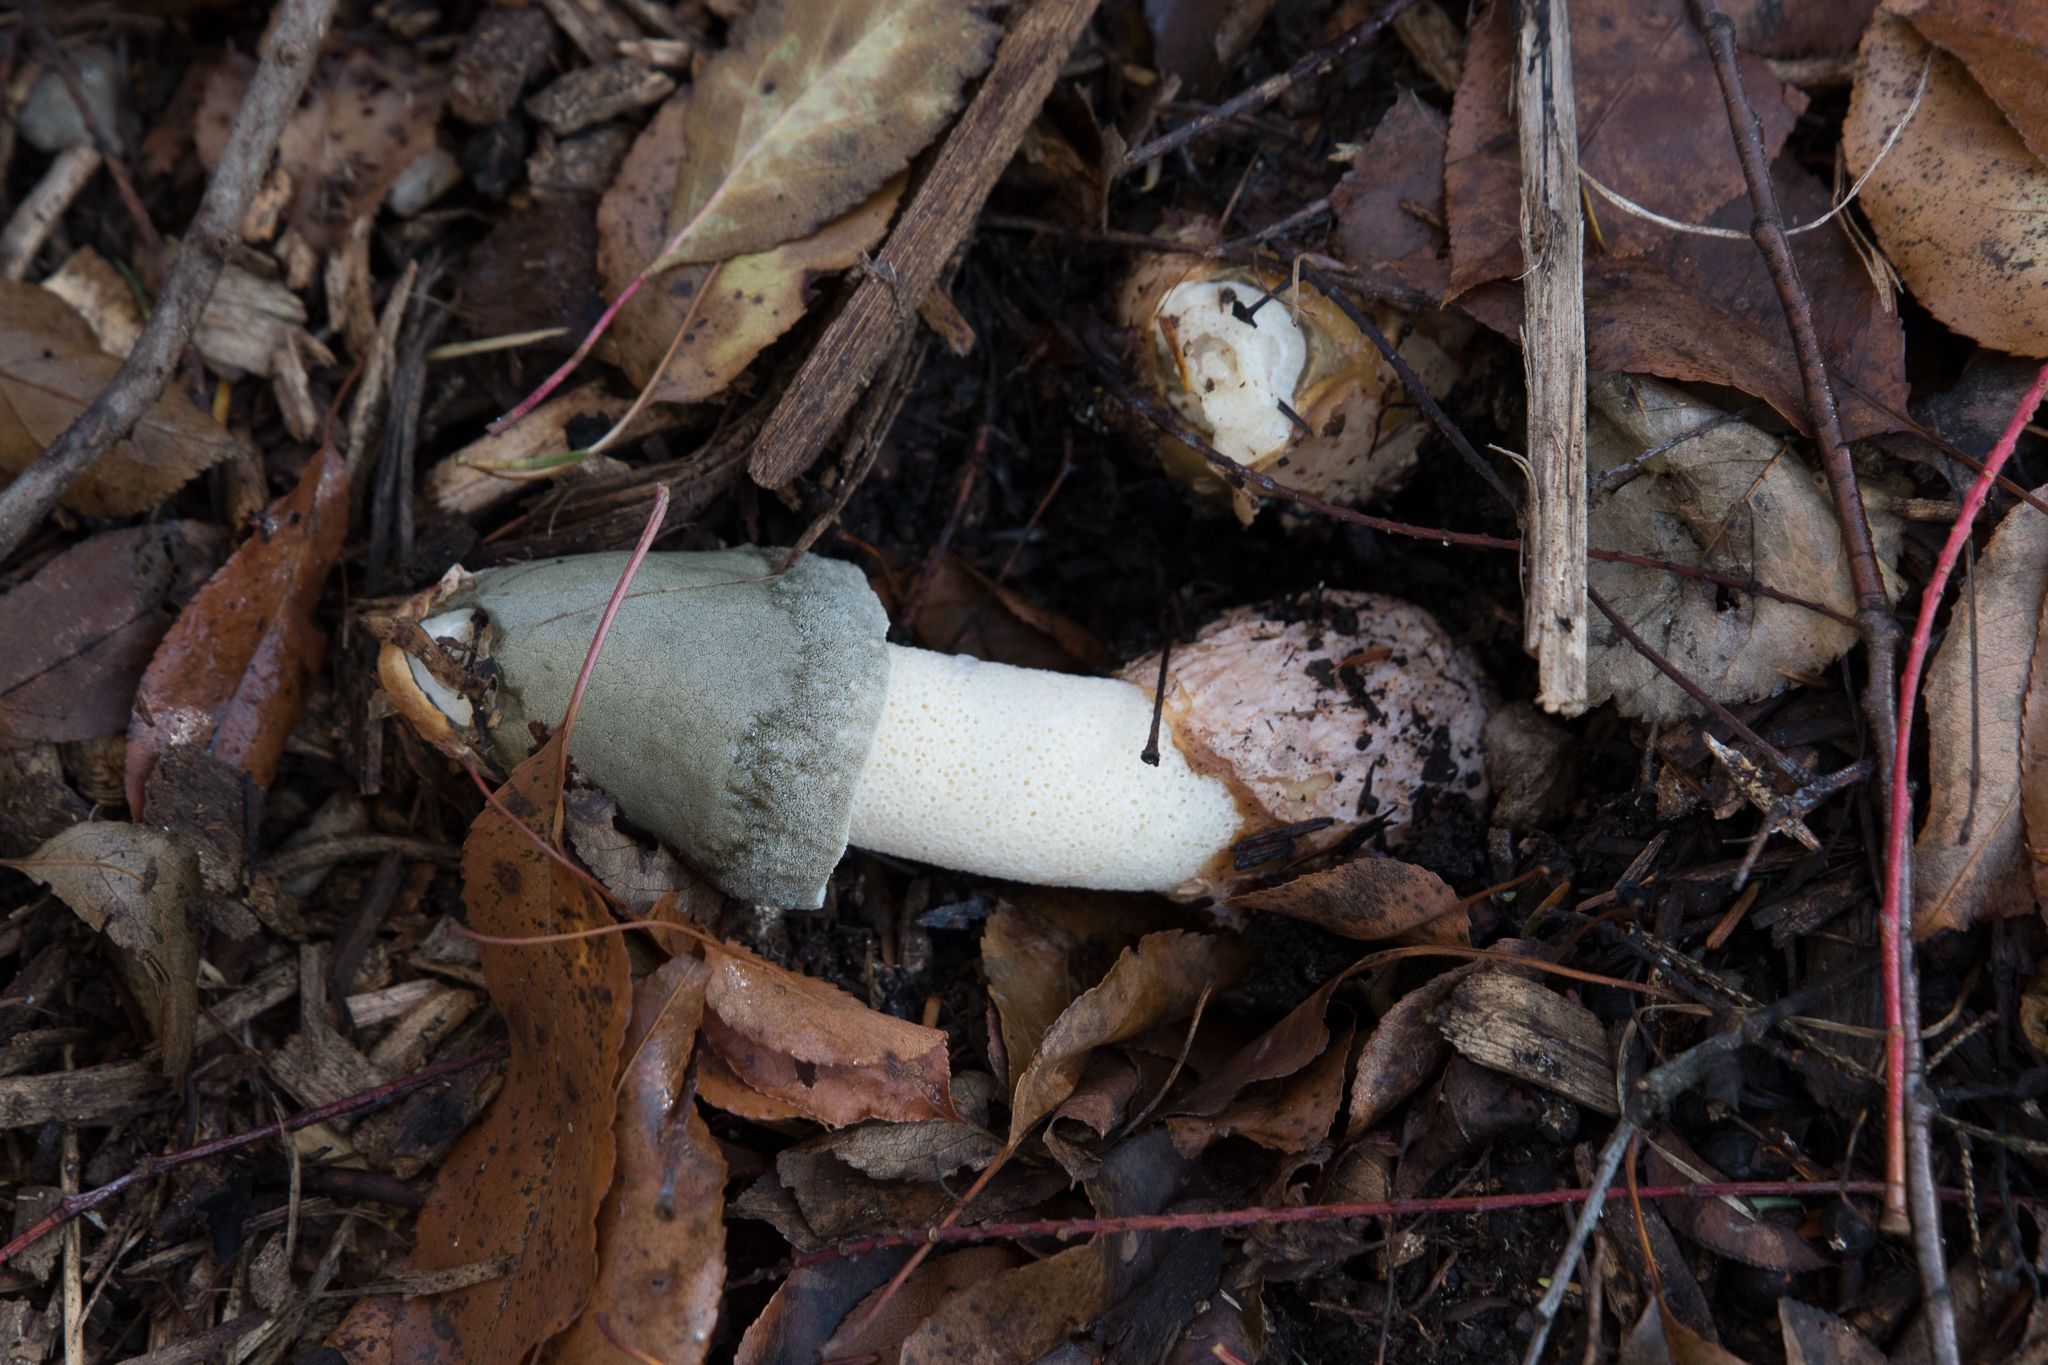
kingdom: Fungi
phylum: Basidiomycota
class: Agaricomycetes
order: Phallales
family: Phallaceae
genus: Phallus
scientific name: Phallus ravenelii
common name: Ravenel's stinkhorn
